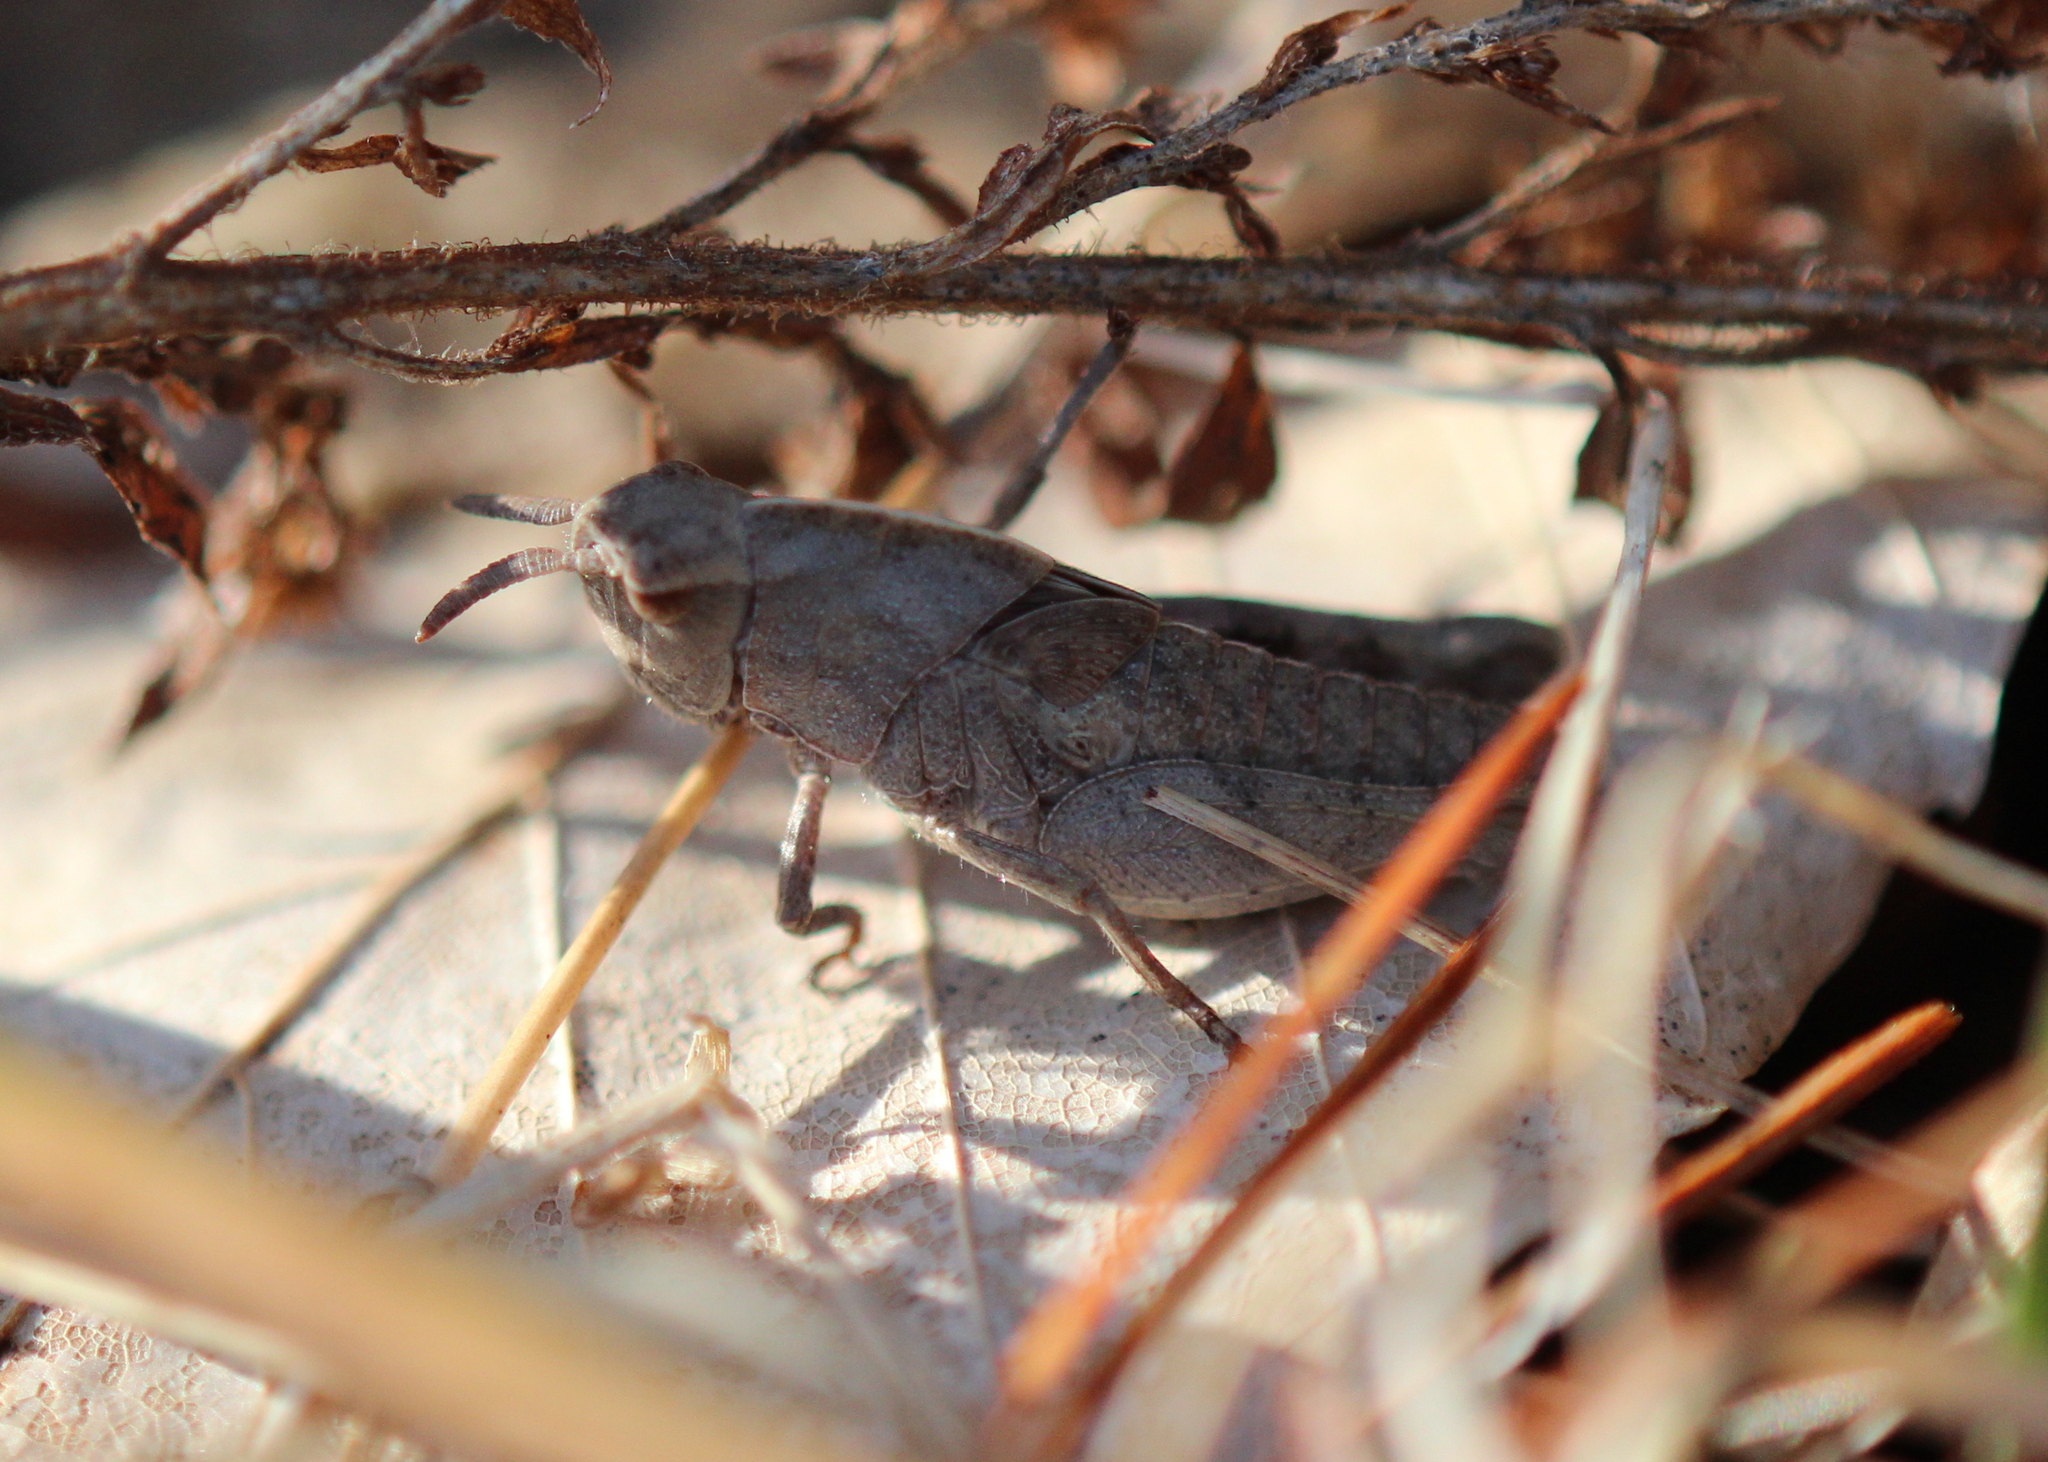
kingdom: Animalia
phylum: Arthropoda
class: Insecta
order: Orthoptera
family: Acrididae
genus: Chortophaga
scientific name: Chortophaga viridifasciata
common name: Green-striped grasshopper
